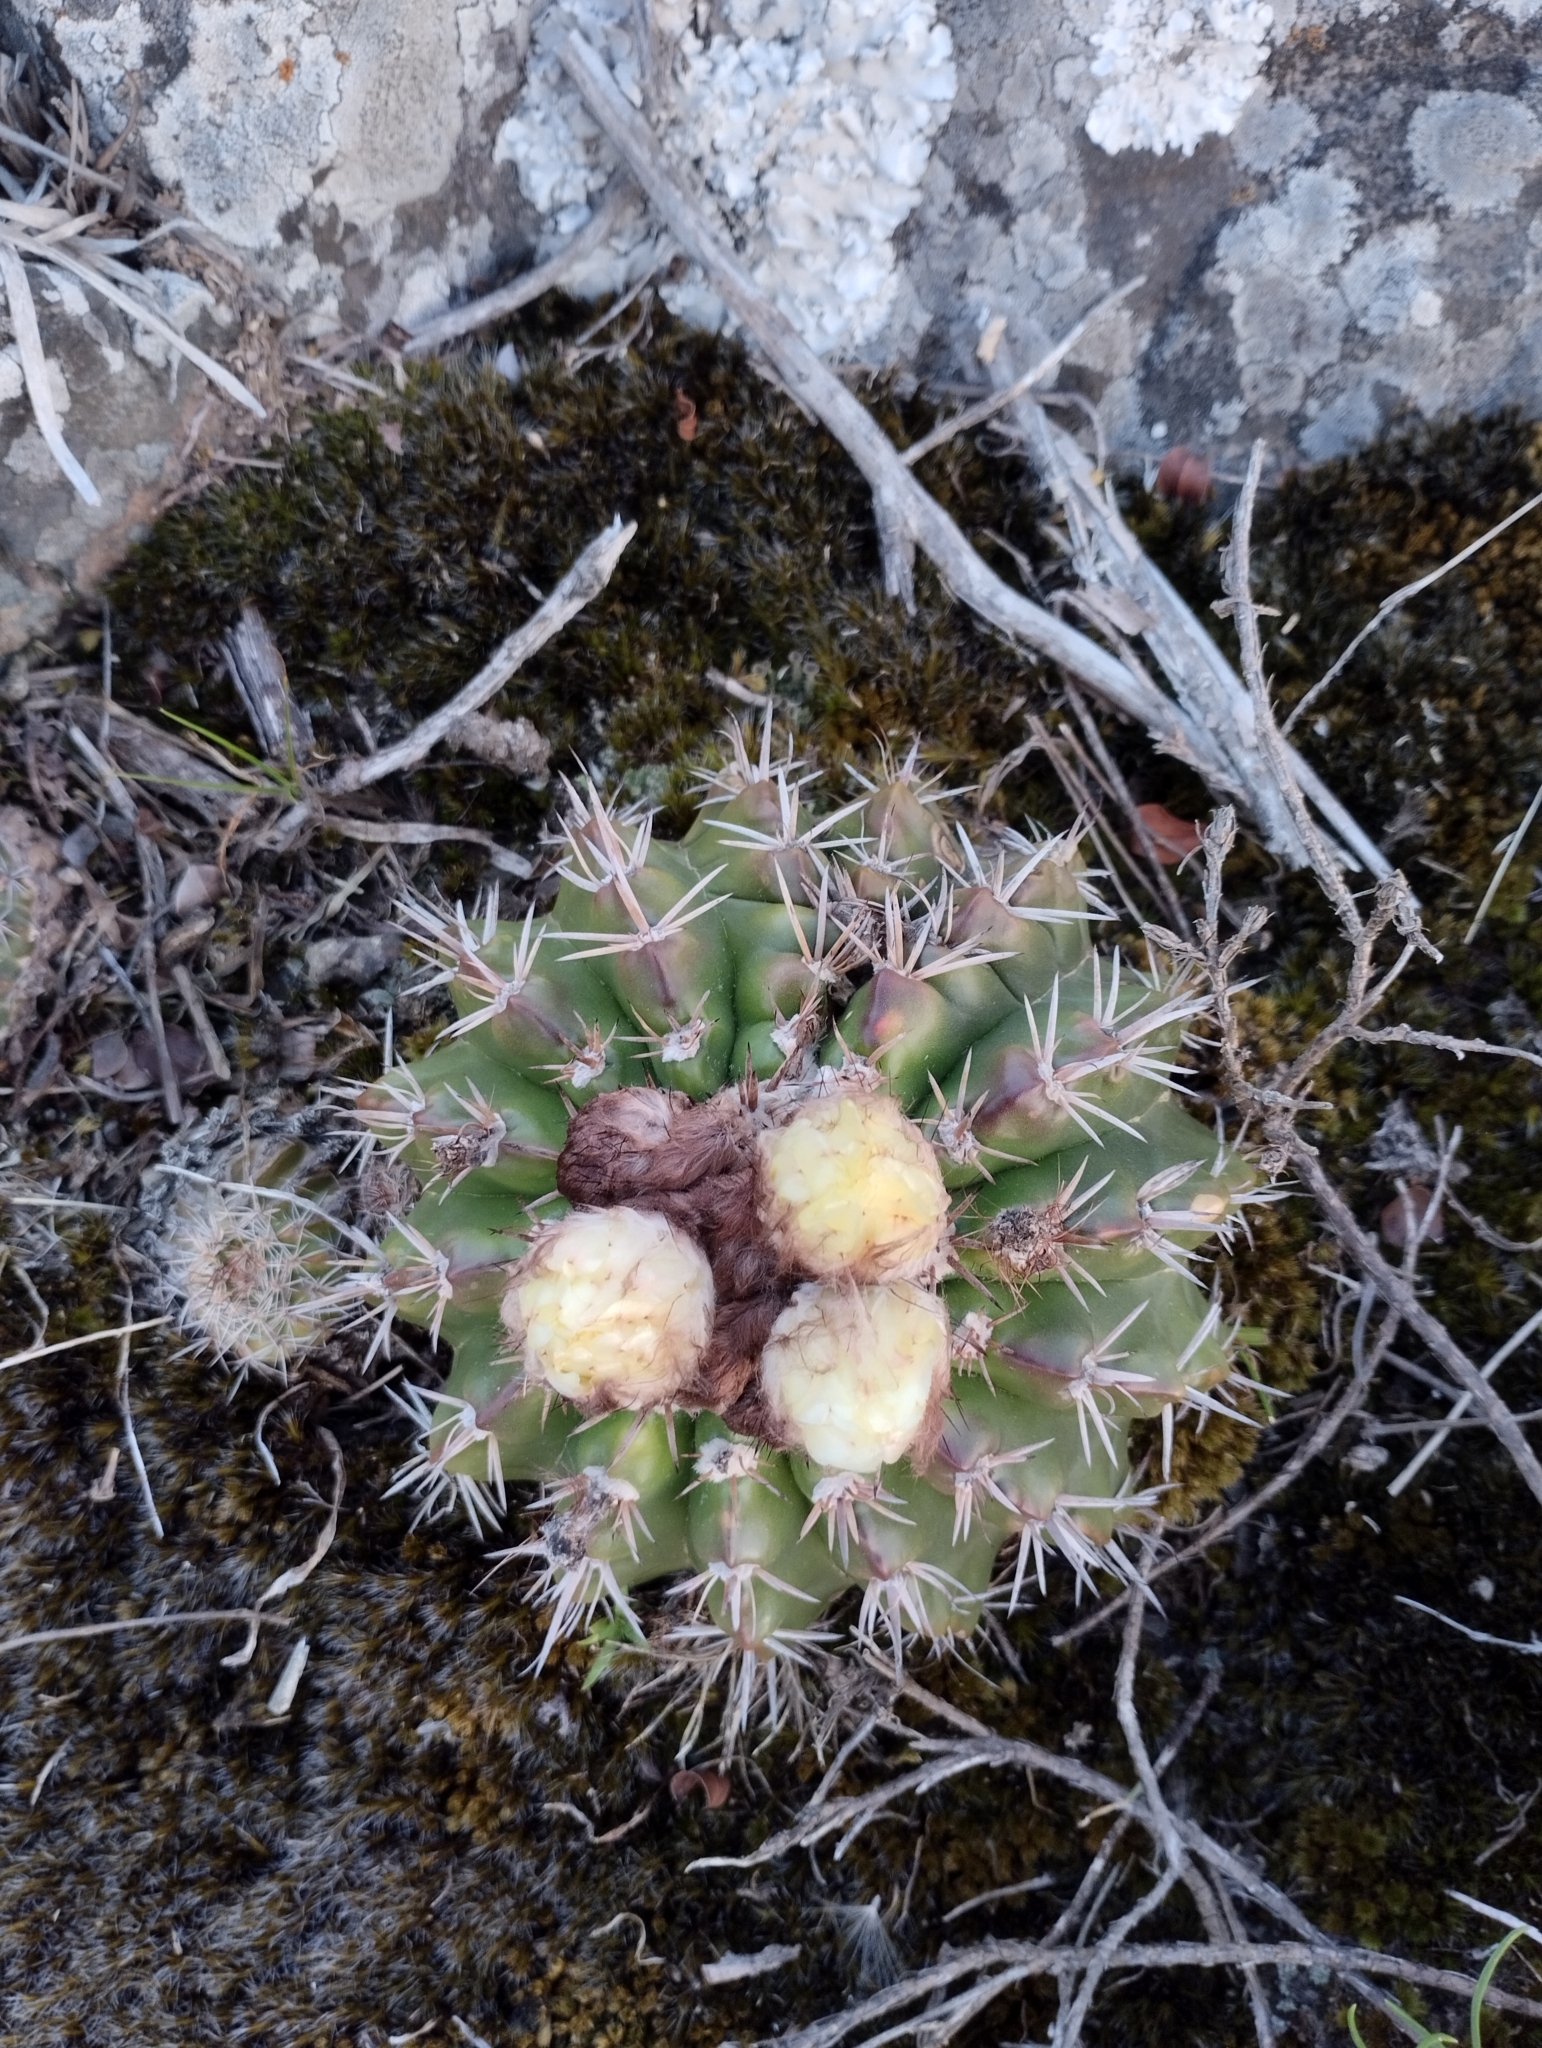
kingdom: Plantae
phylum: Tracheophyta
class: Magnoliopsida
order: Caryophyllales
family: Cactaceae
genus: Parodia
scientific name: Parodia mammulosa
